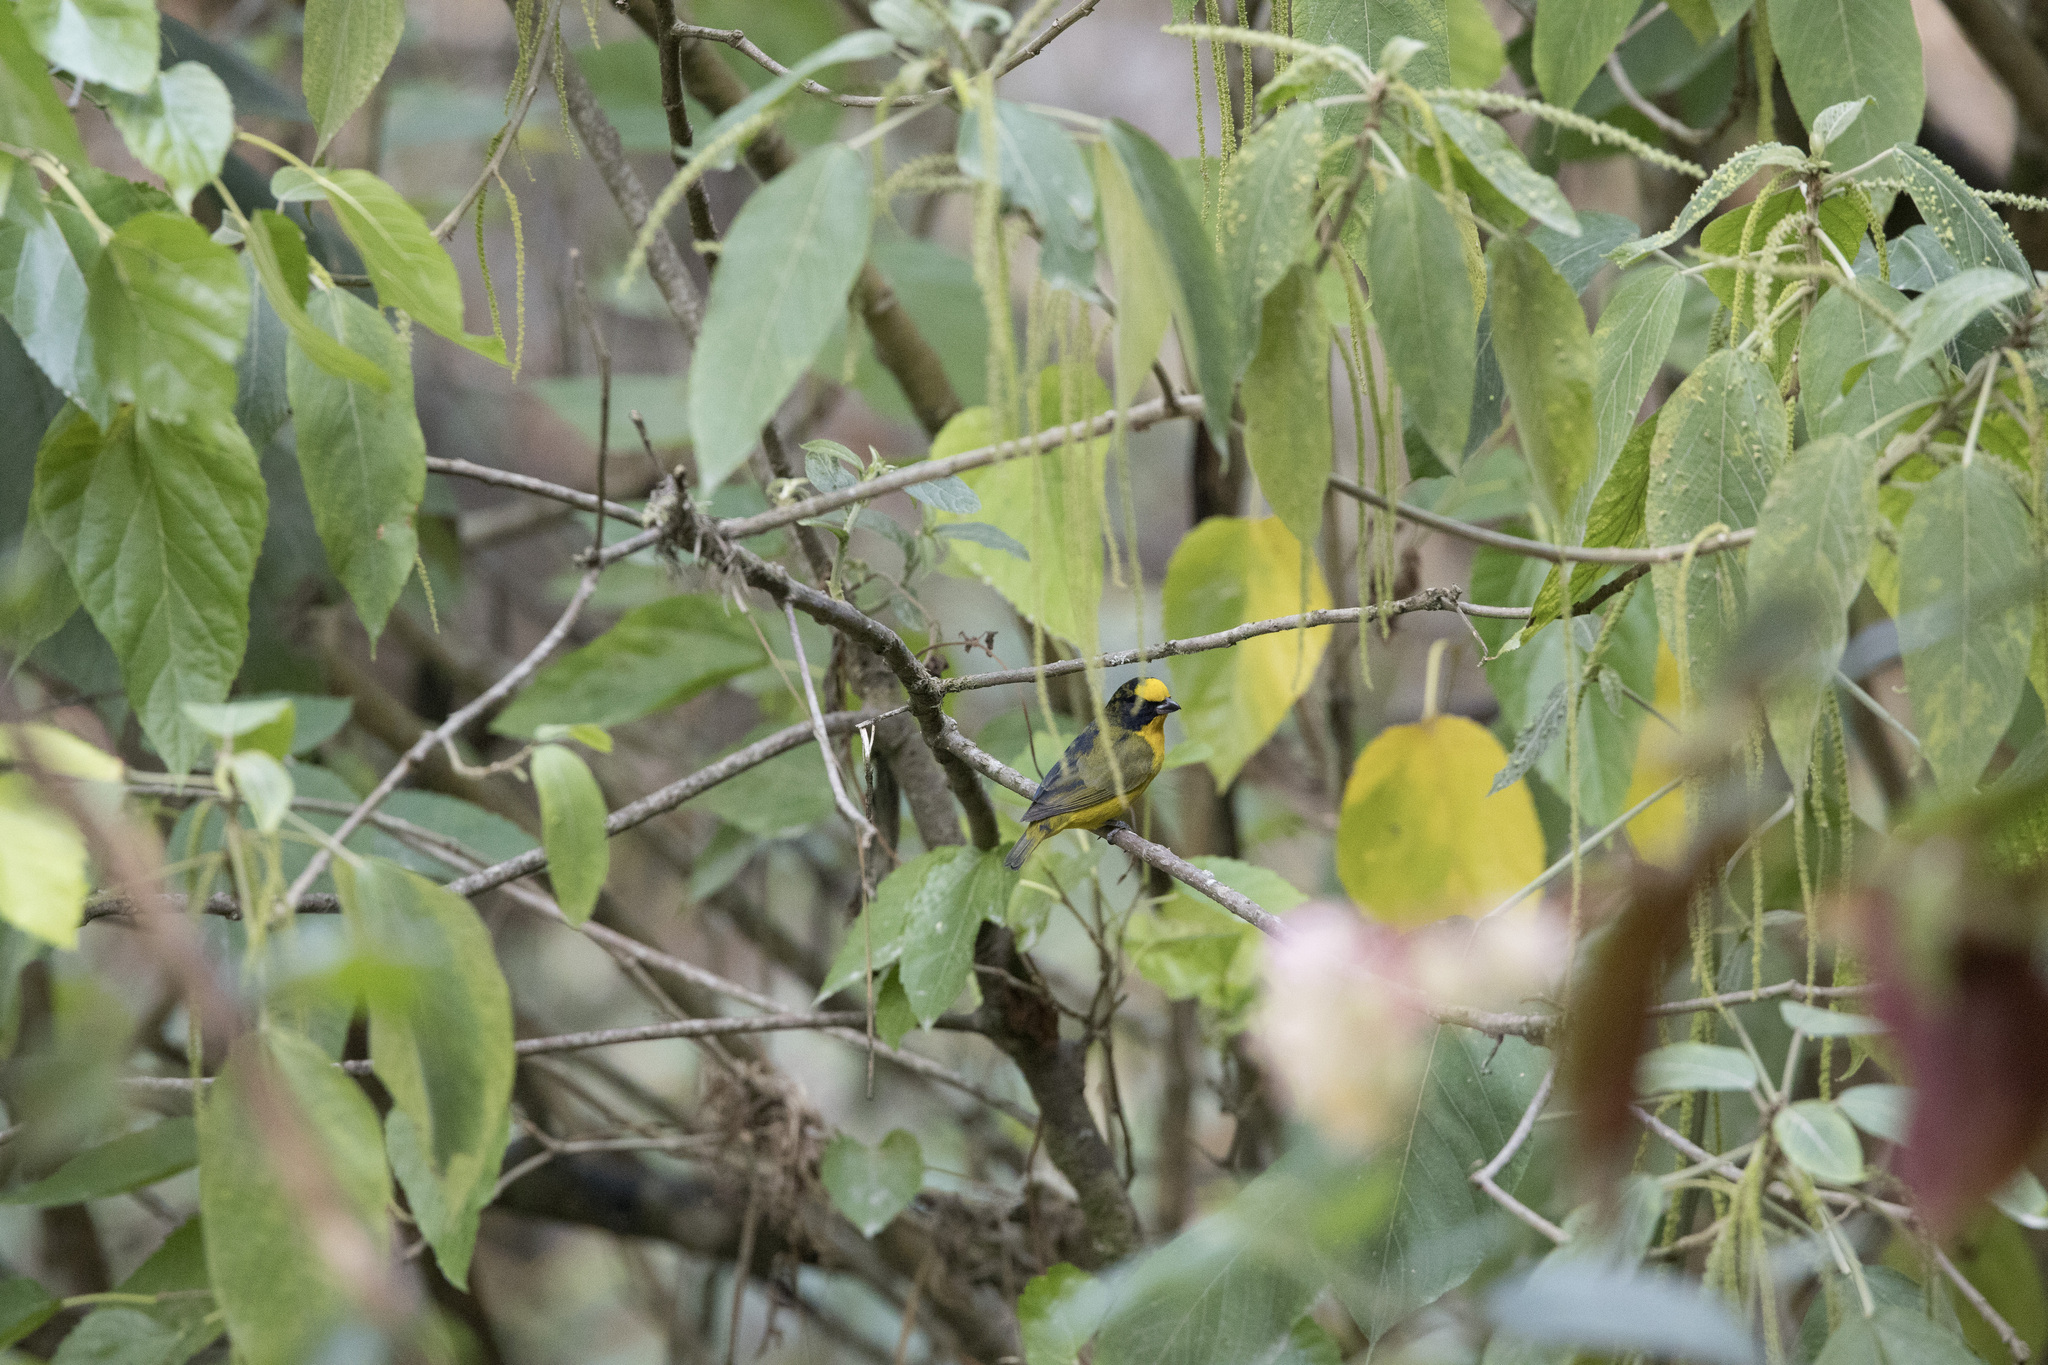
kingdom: Animalia
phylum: Chordata
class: Aves
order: Passeriformes
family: Fringillidae
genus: Euphonia
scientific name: Euphonia laniirostris
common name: Thick-billed euphonia
